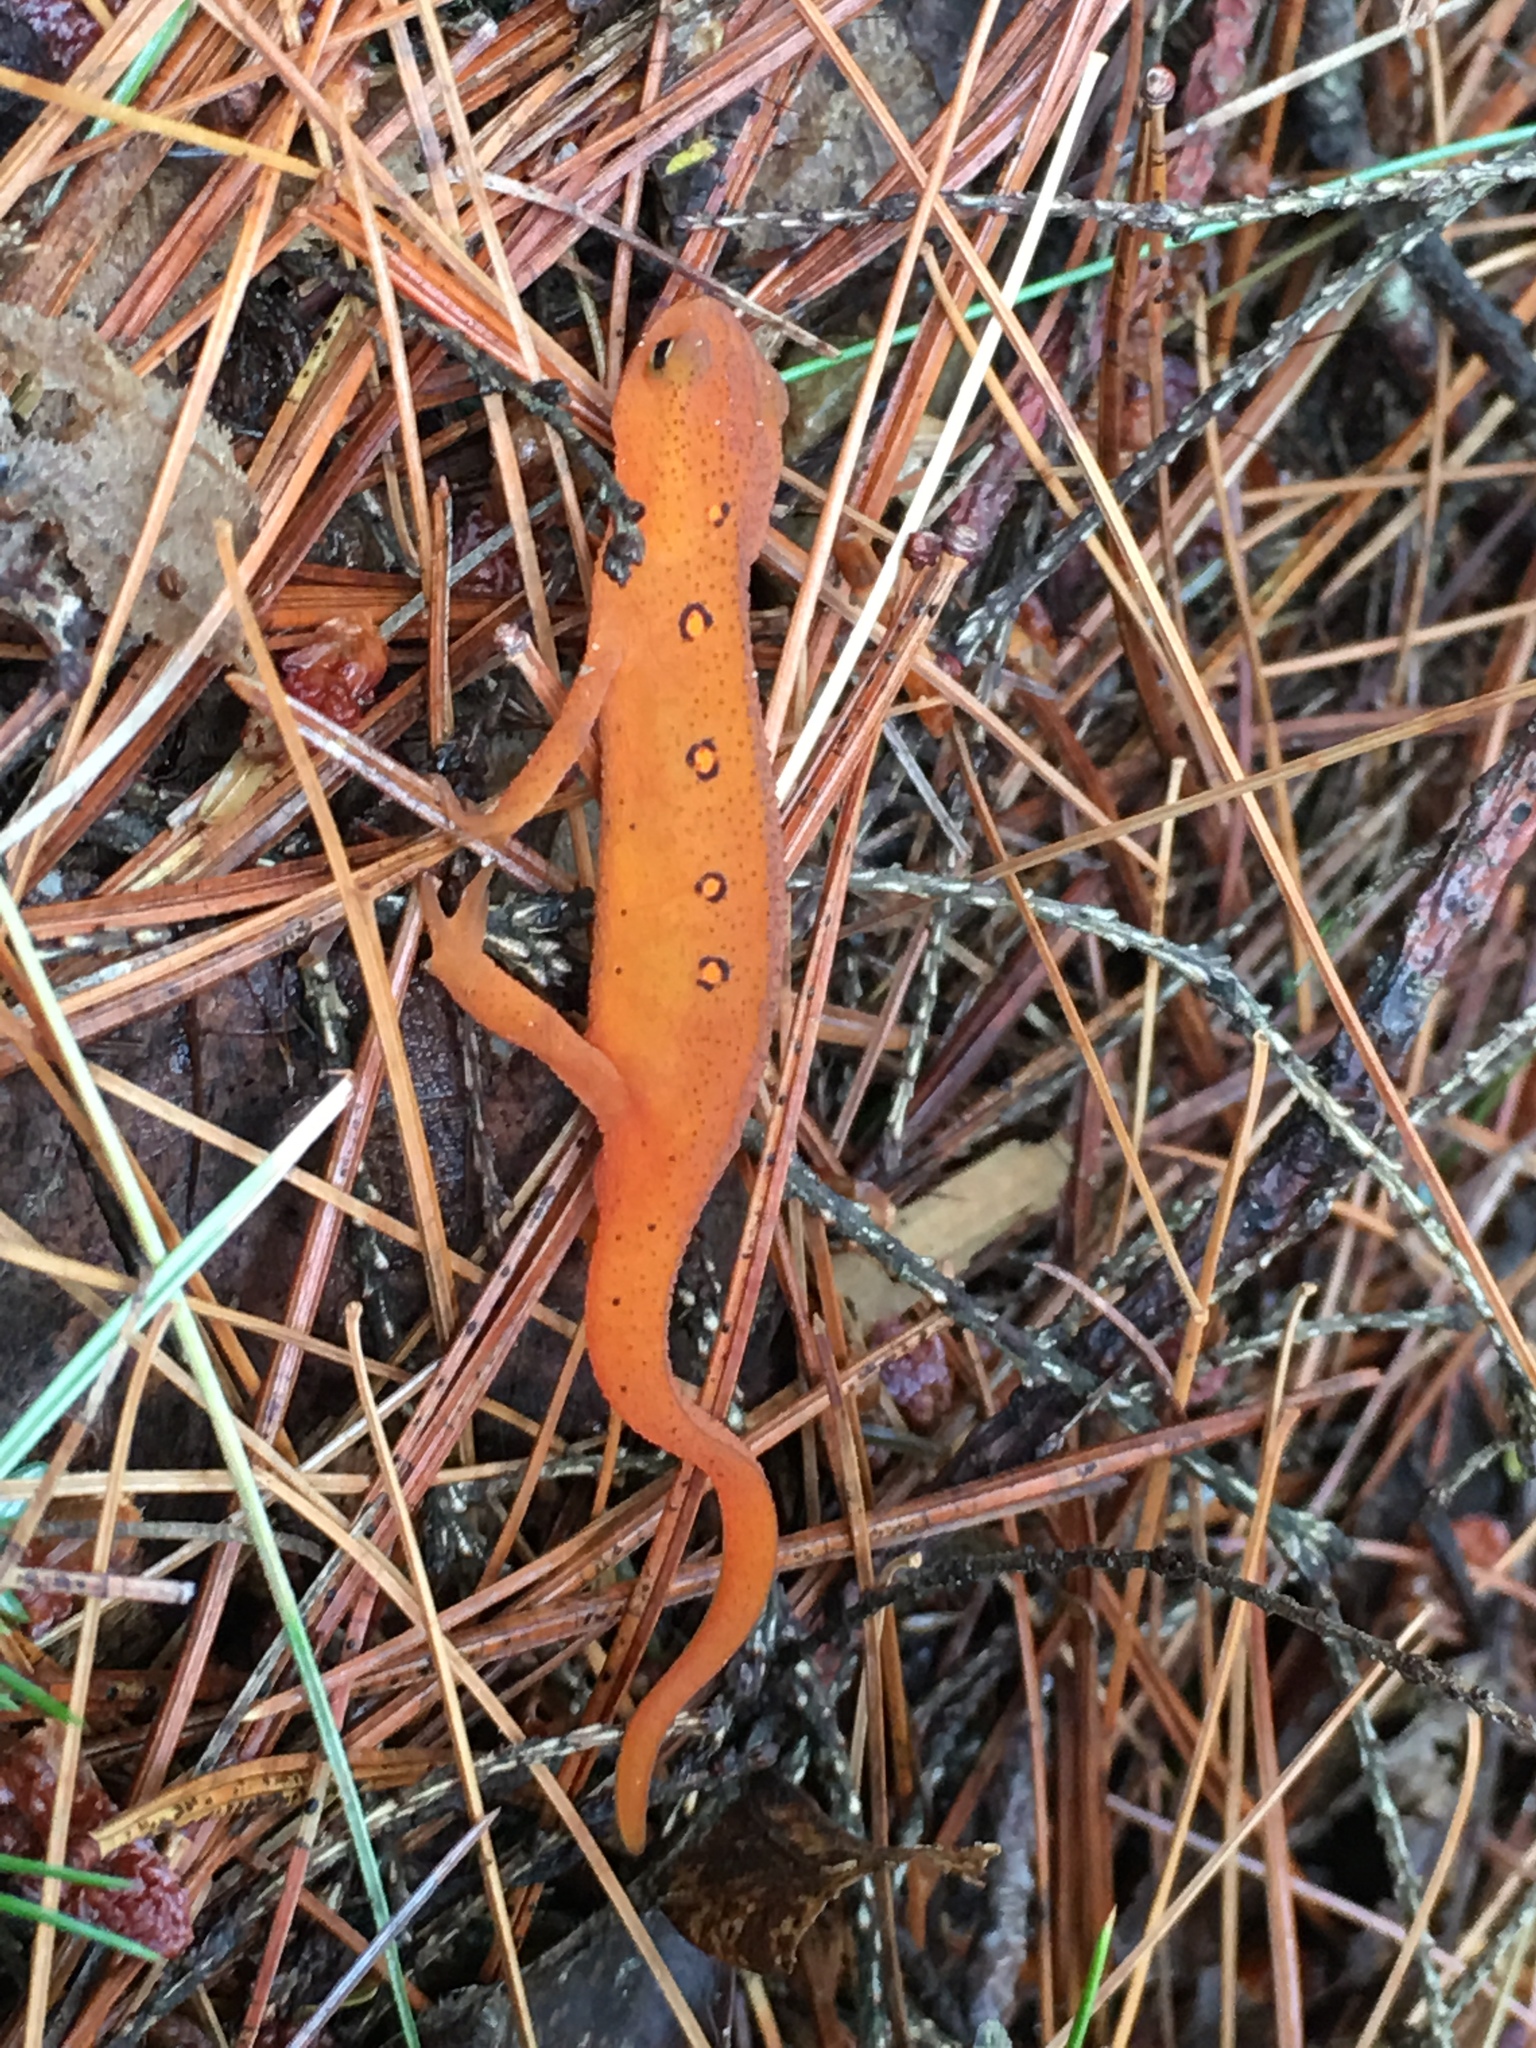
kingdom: Animalia
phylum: Chordata
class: Amphibia
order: Caudata
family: Salamandridae
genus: Notophthalmus
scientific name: Notophthalmus viridescens
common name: Eastern newt
